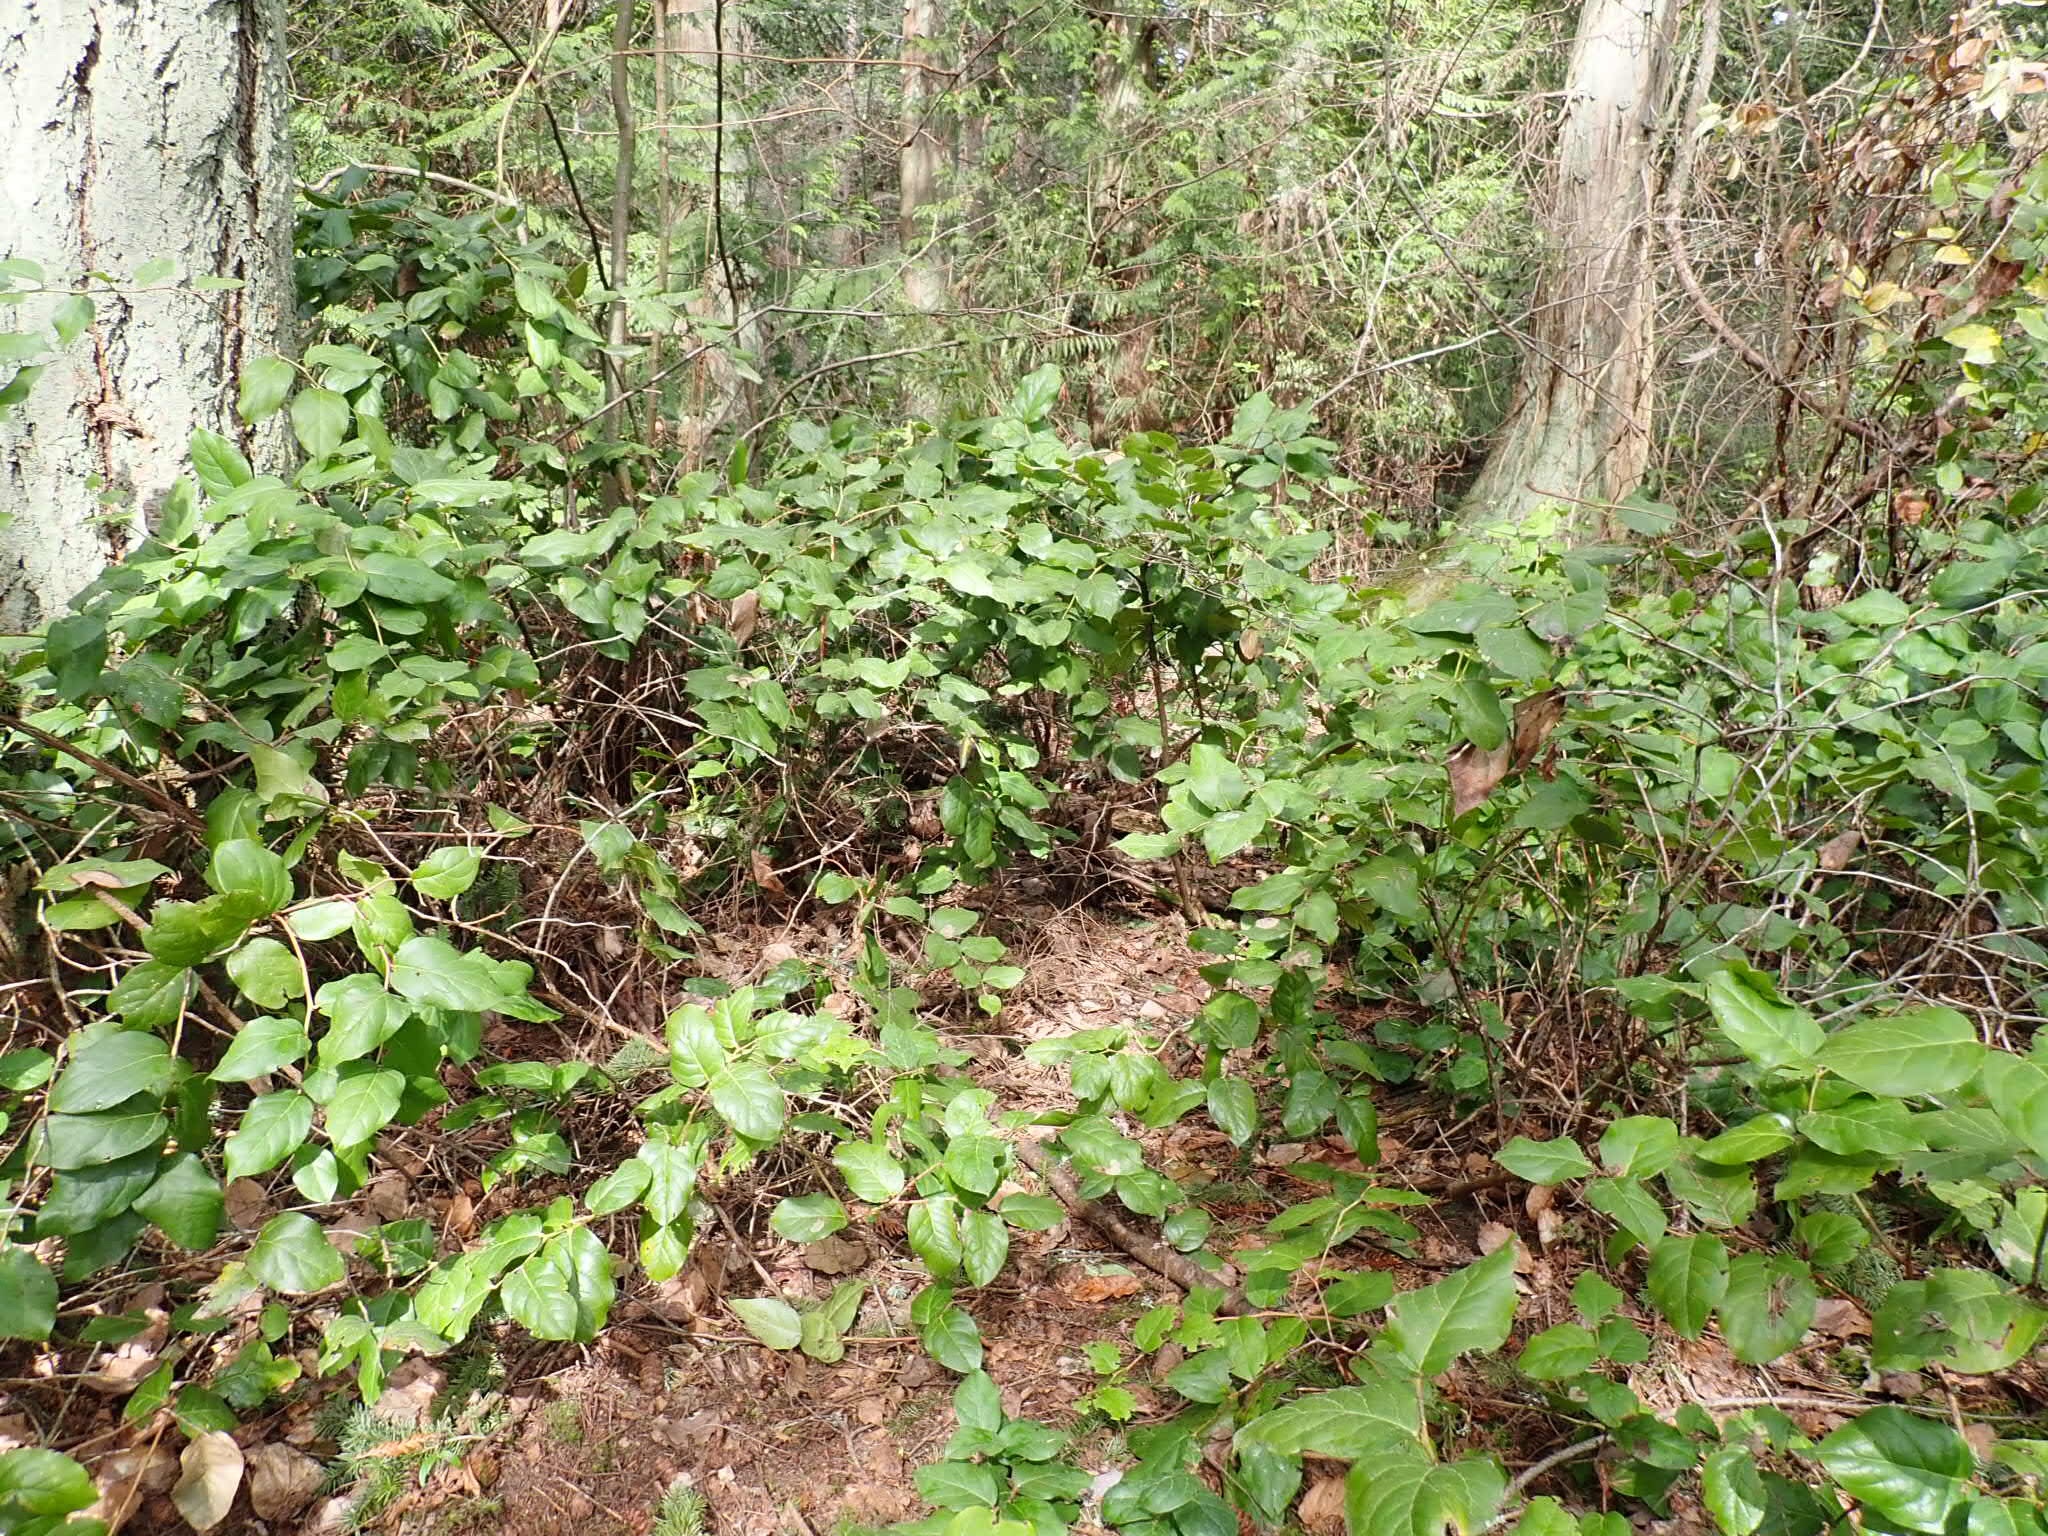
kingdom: Plantae
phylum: Tracheophyta
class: Magnoliopsida
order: Ericales
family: Ericaceae
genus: Gaultheria
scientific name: Gaultheria shallon
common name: Shallon
